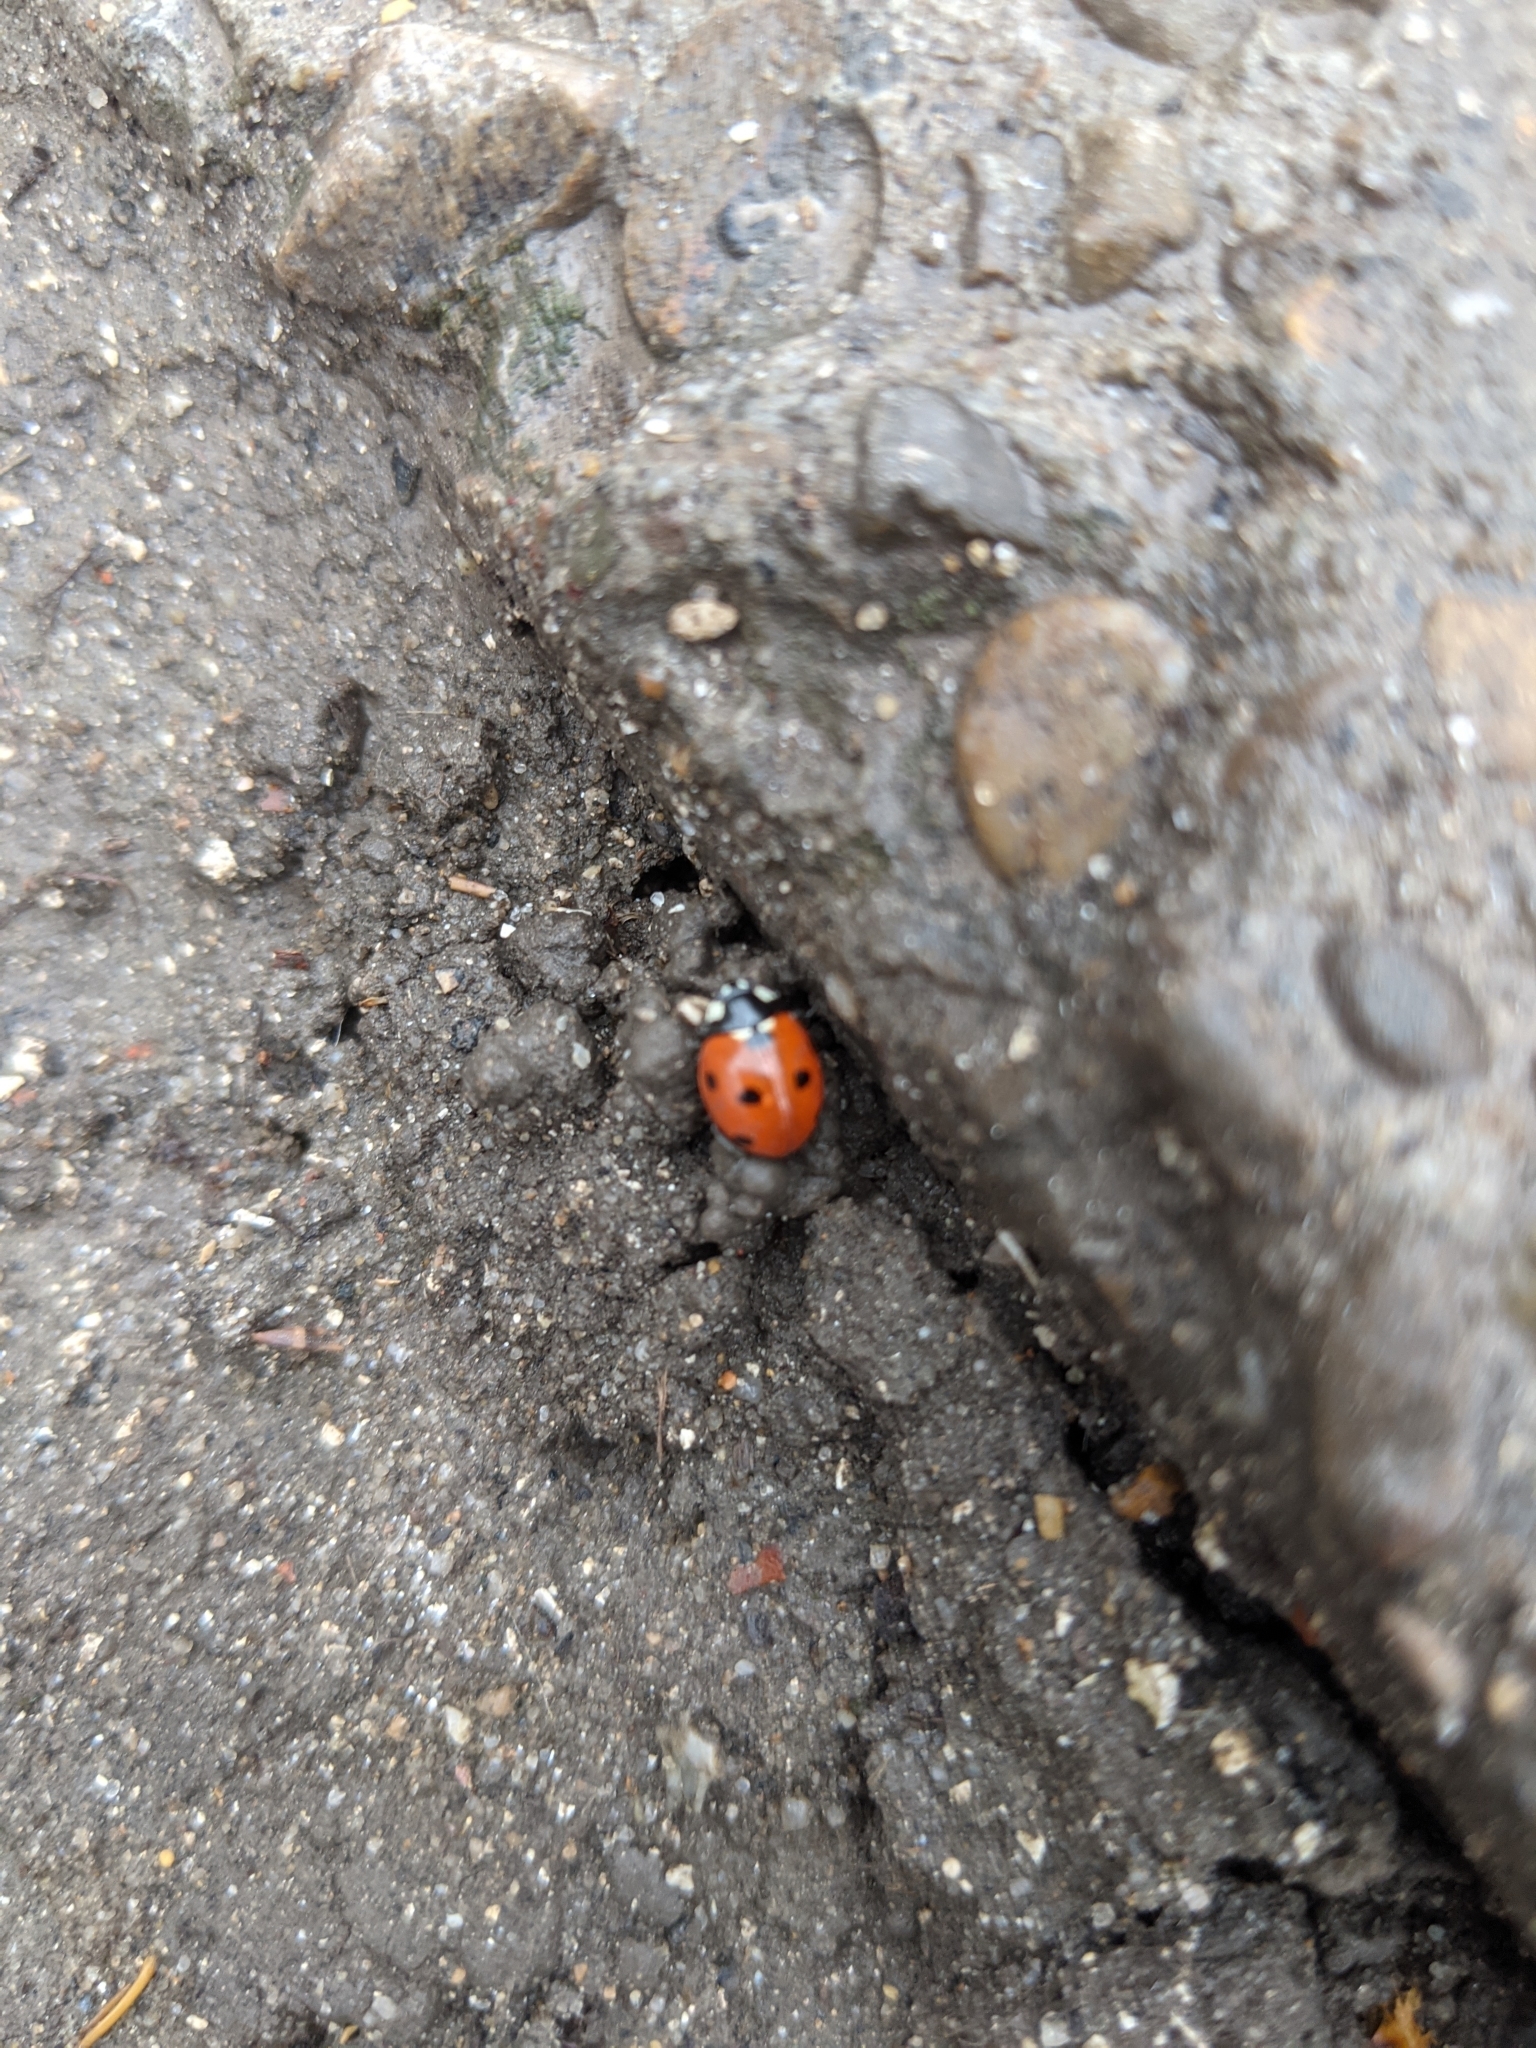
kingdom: Animalia
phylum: Arthropoda
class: Insecta
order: Coleoptera
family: Coccinellidae
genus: Coccinella
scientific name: Coccinella septempunctata
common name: Sevenspotted lady beetle
